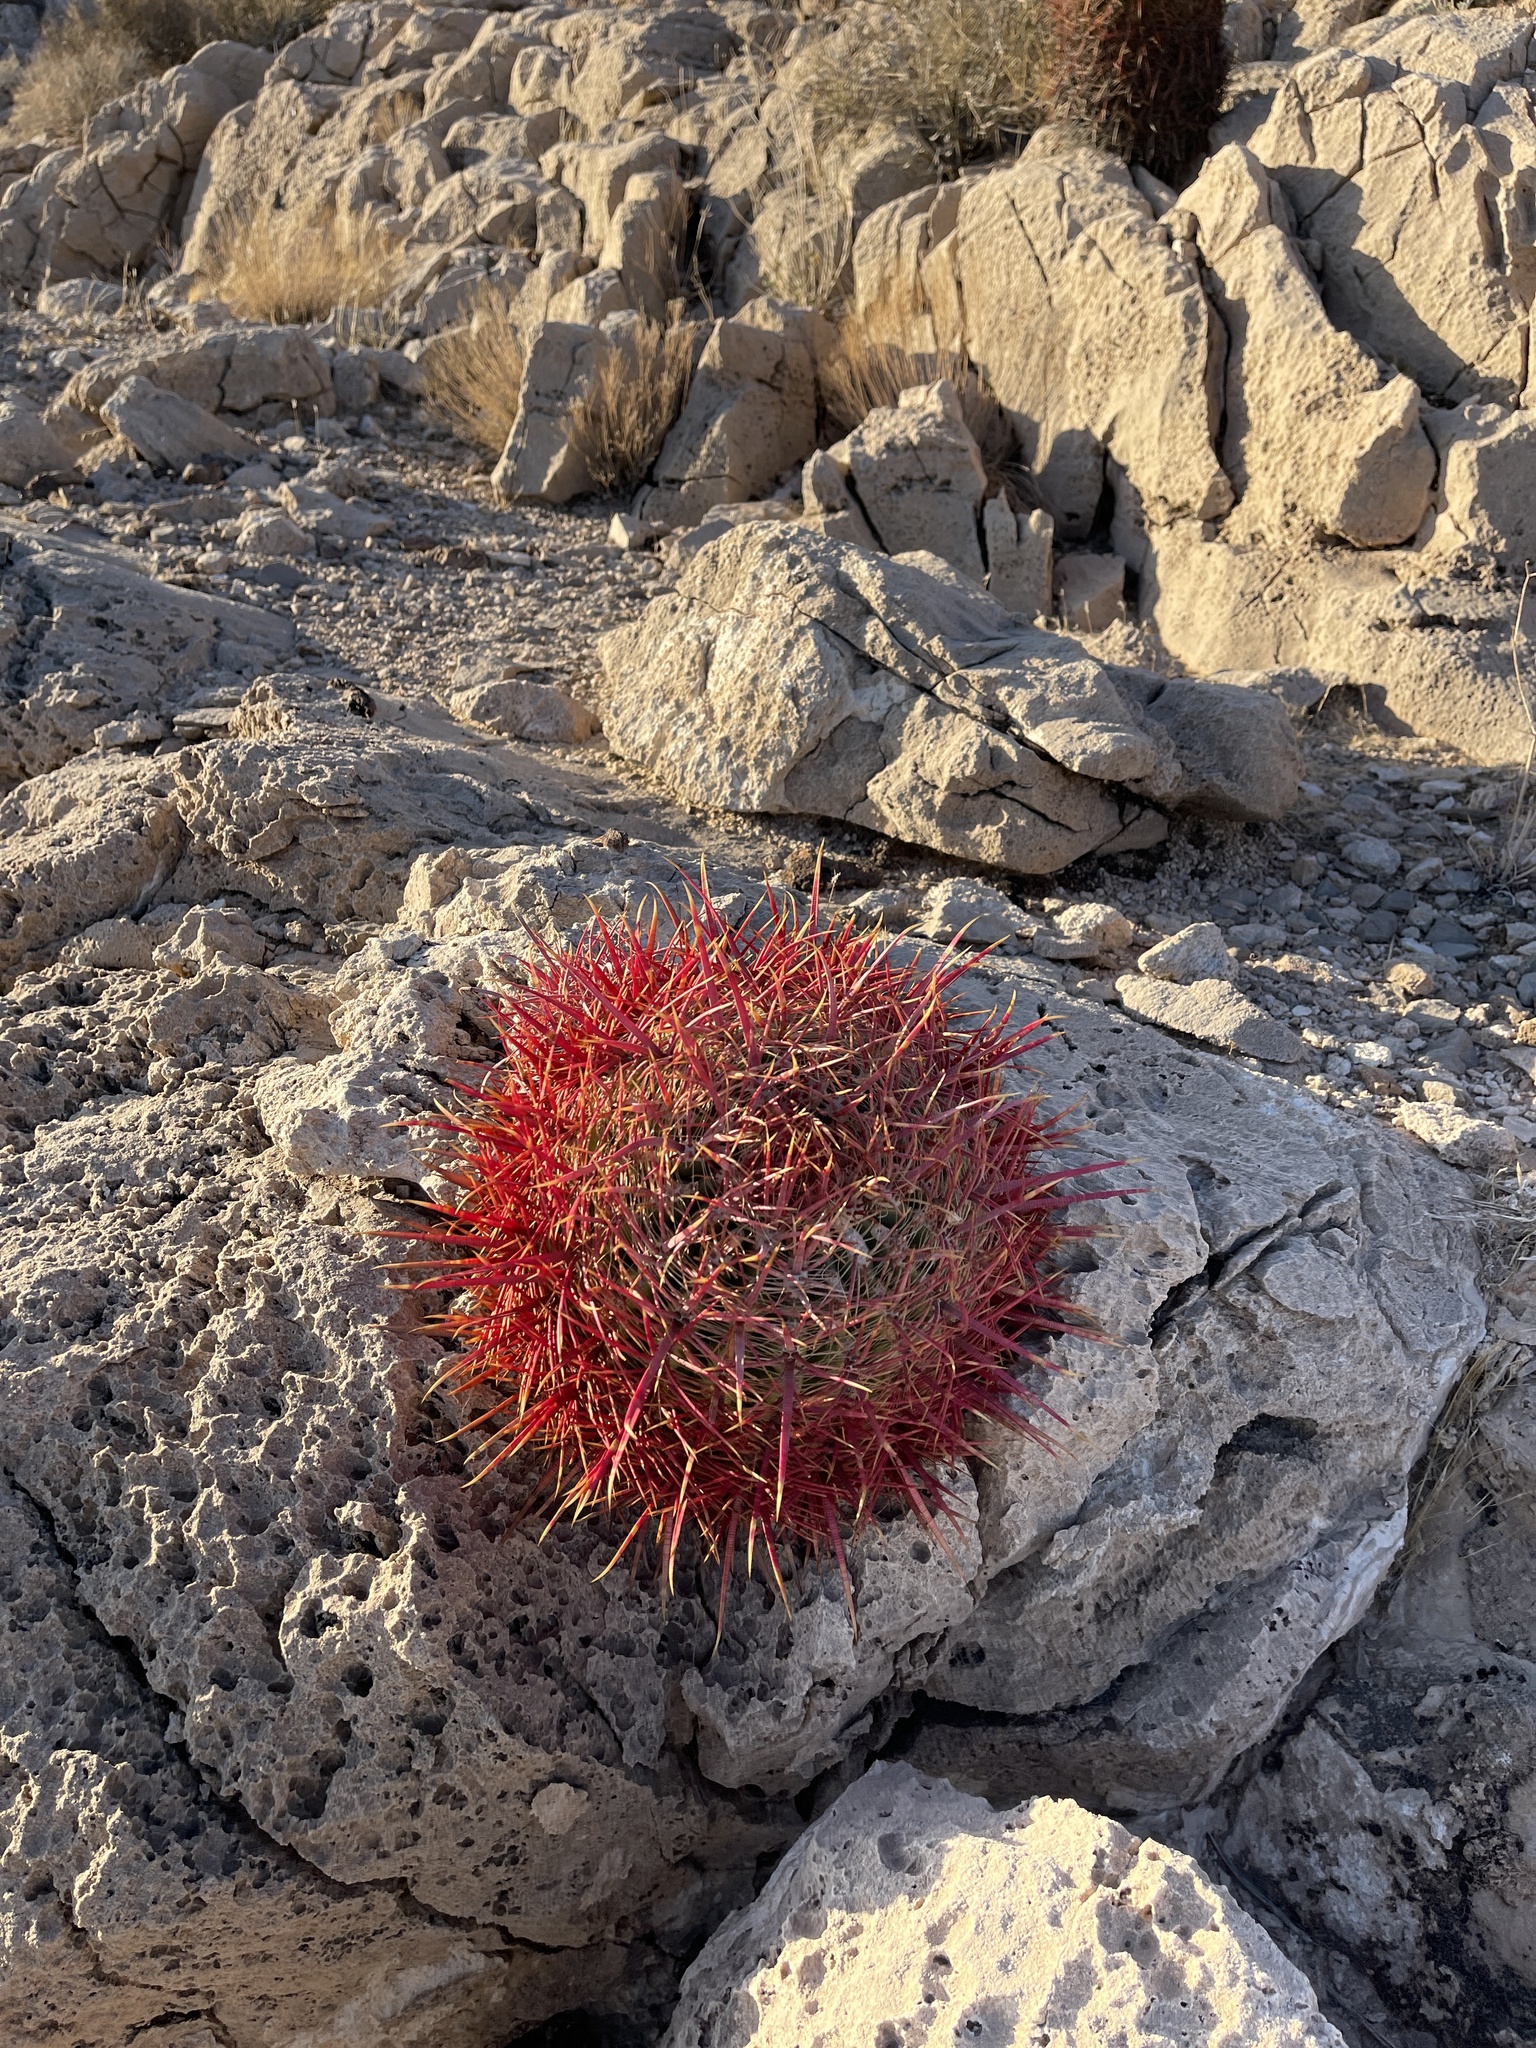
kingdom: Plantae
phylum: Tracheophyta
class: Magnoliopsida
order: Caryophyllales
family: Cactaceae
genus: Ferocactus
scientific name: Ferocactus cylindraceus
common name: California barrel cactus
